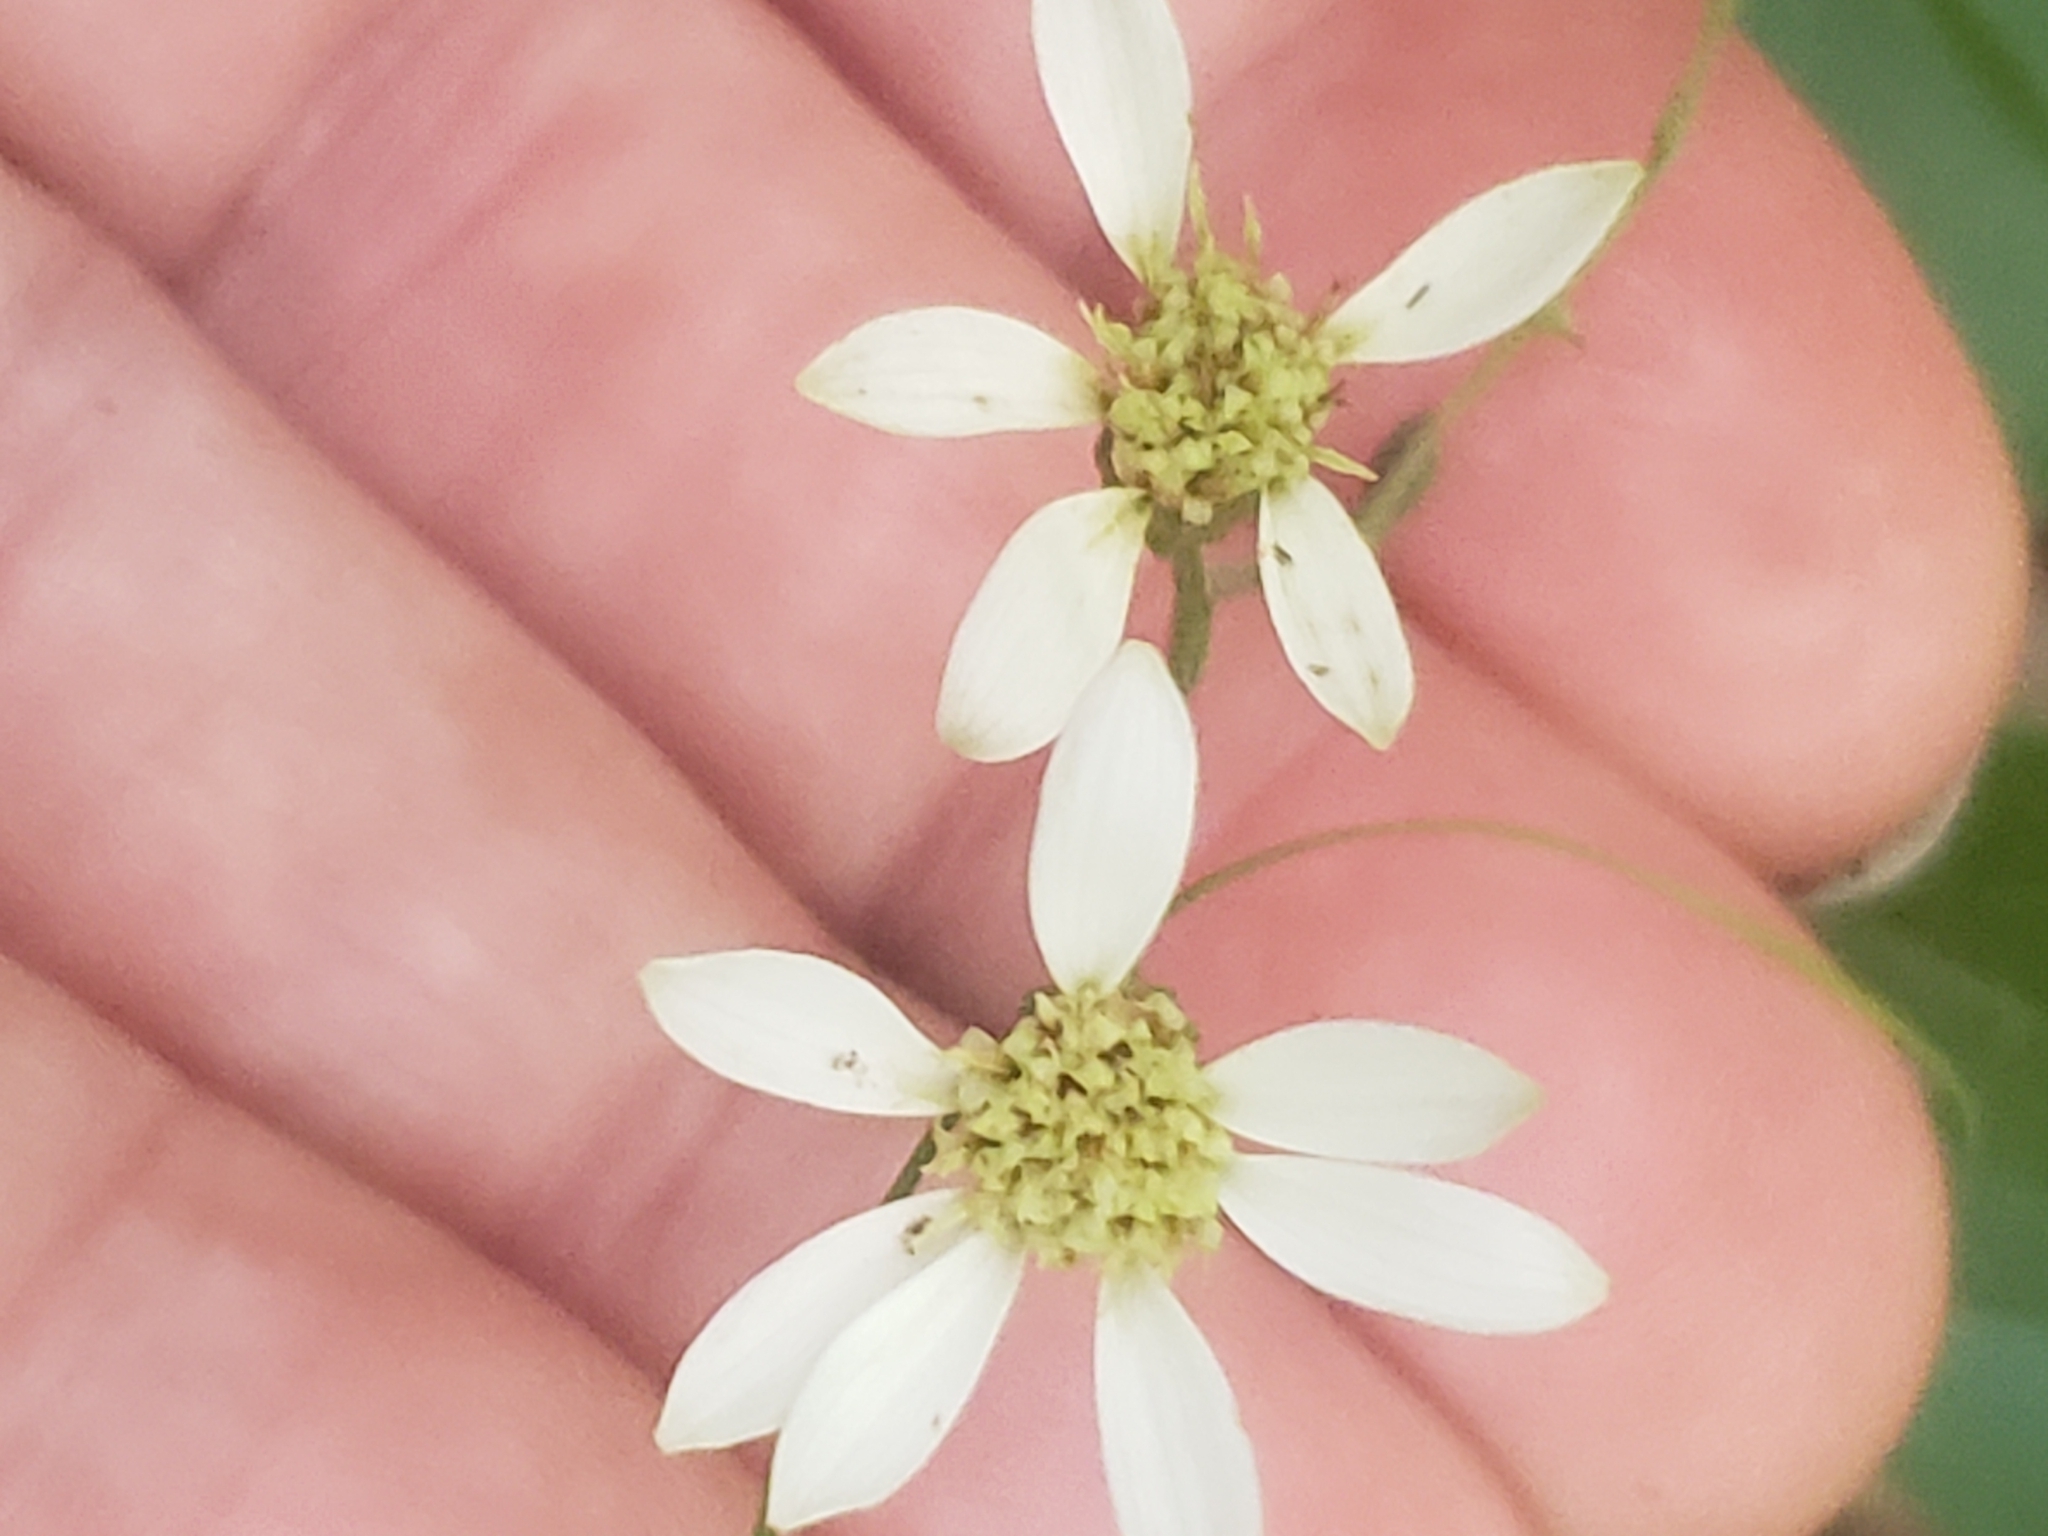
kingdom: Plantae
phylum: Tracheophyta
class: Magnoliopsida
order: Asterales
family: Asteraceae
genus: Doellingeria
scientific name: Doellingeria infirma
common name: Appalachian flat-top aster
